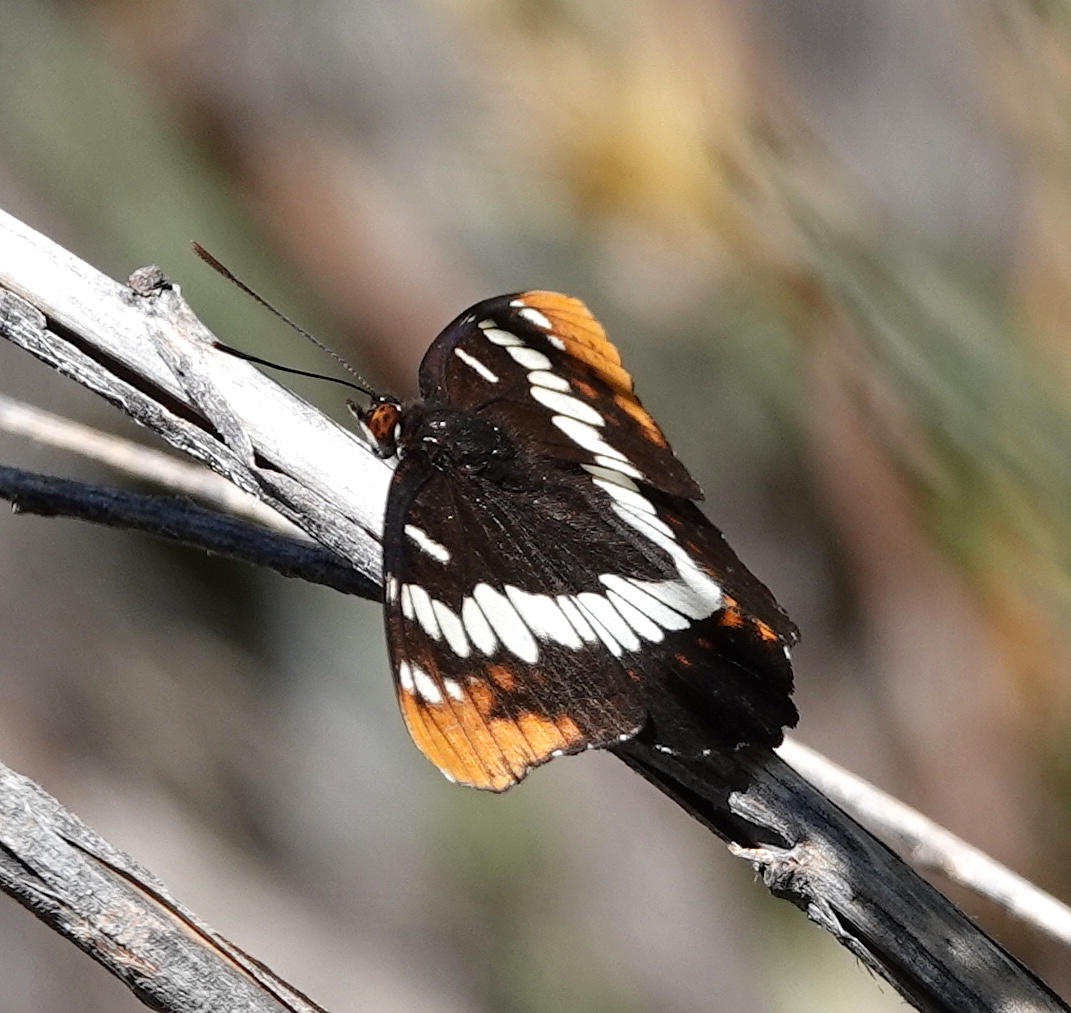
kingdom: Animalia
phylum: Arthropoda
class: Insecta
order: Lepidoptera
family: Nymphalidae
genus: Limenitis
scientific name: Limenitis lorquini
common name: Lorquin's admiral
